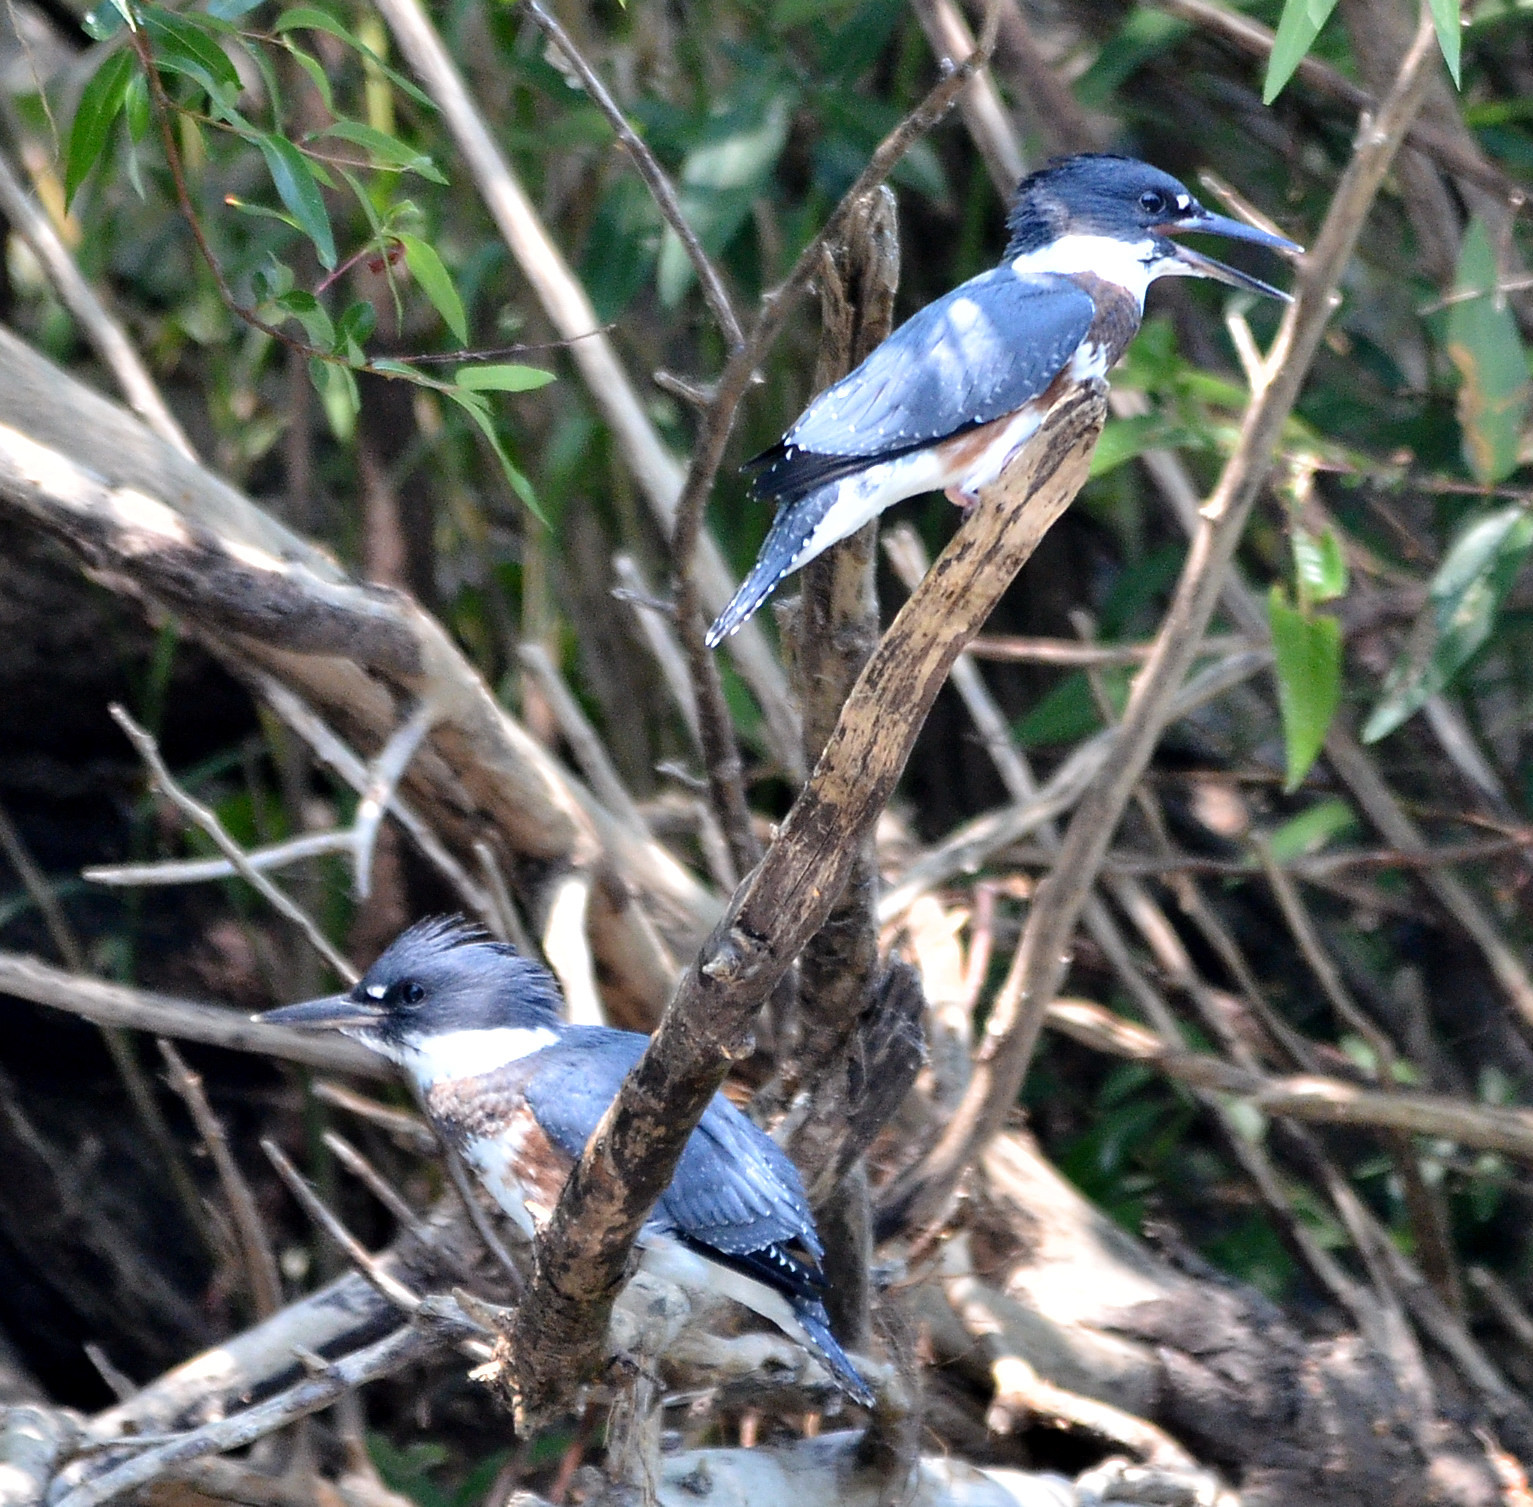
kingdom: Animalia
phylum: Chordata
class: Aves
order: Coraciiformes
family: Alcedinidae
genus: Megaceryle
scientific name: Megaceryle alcyon
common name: Belted kingfisher
